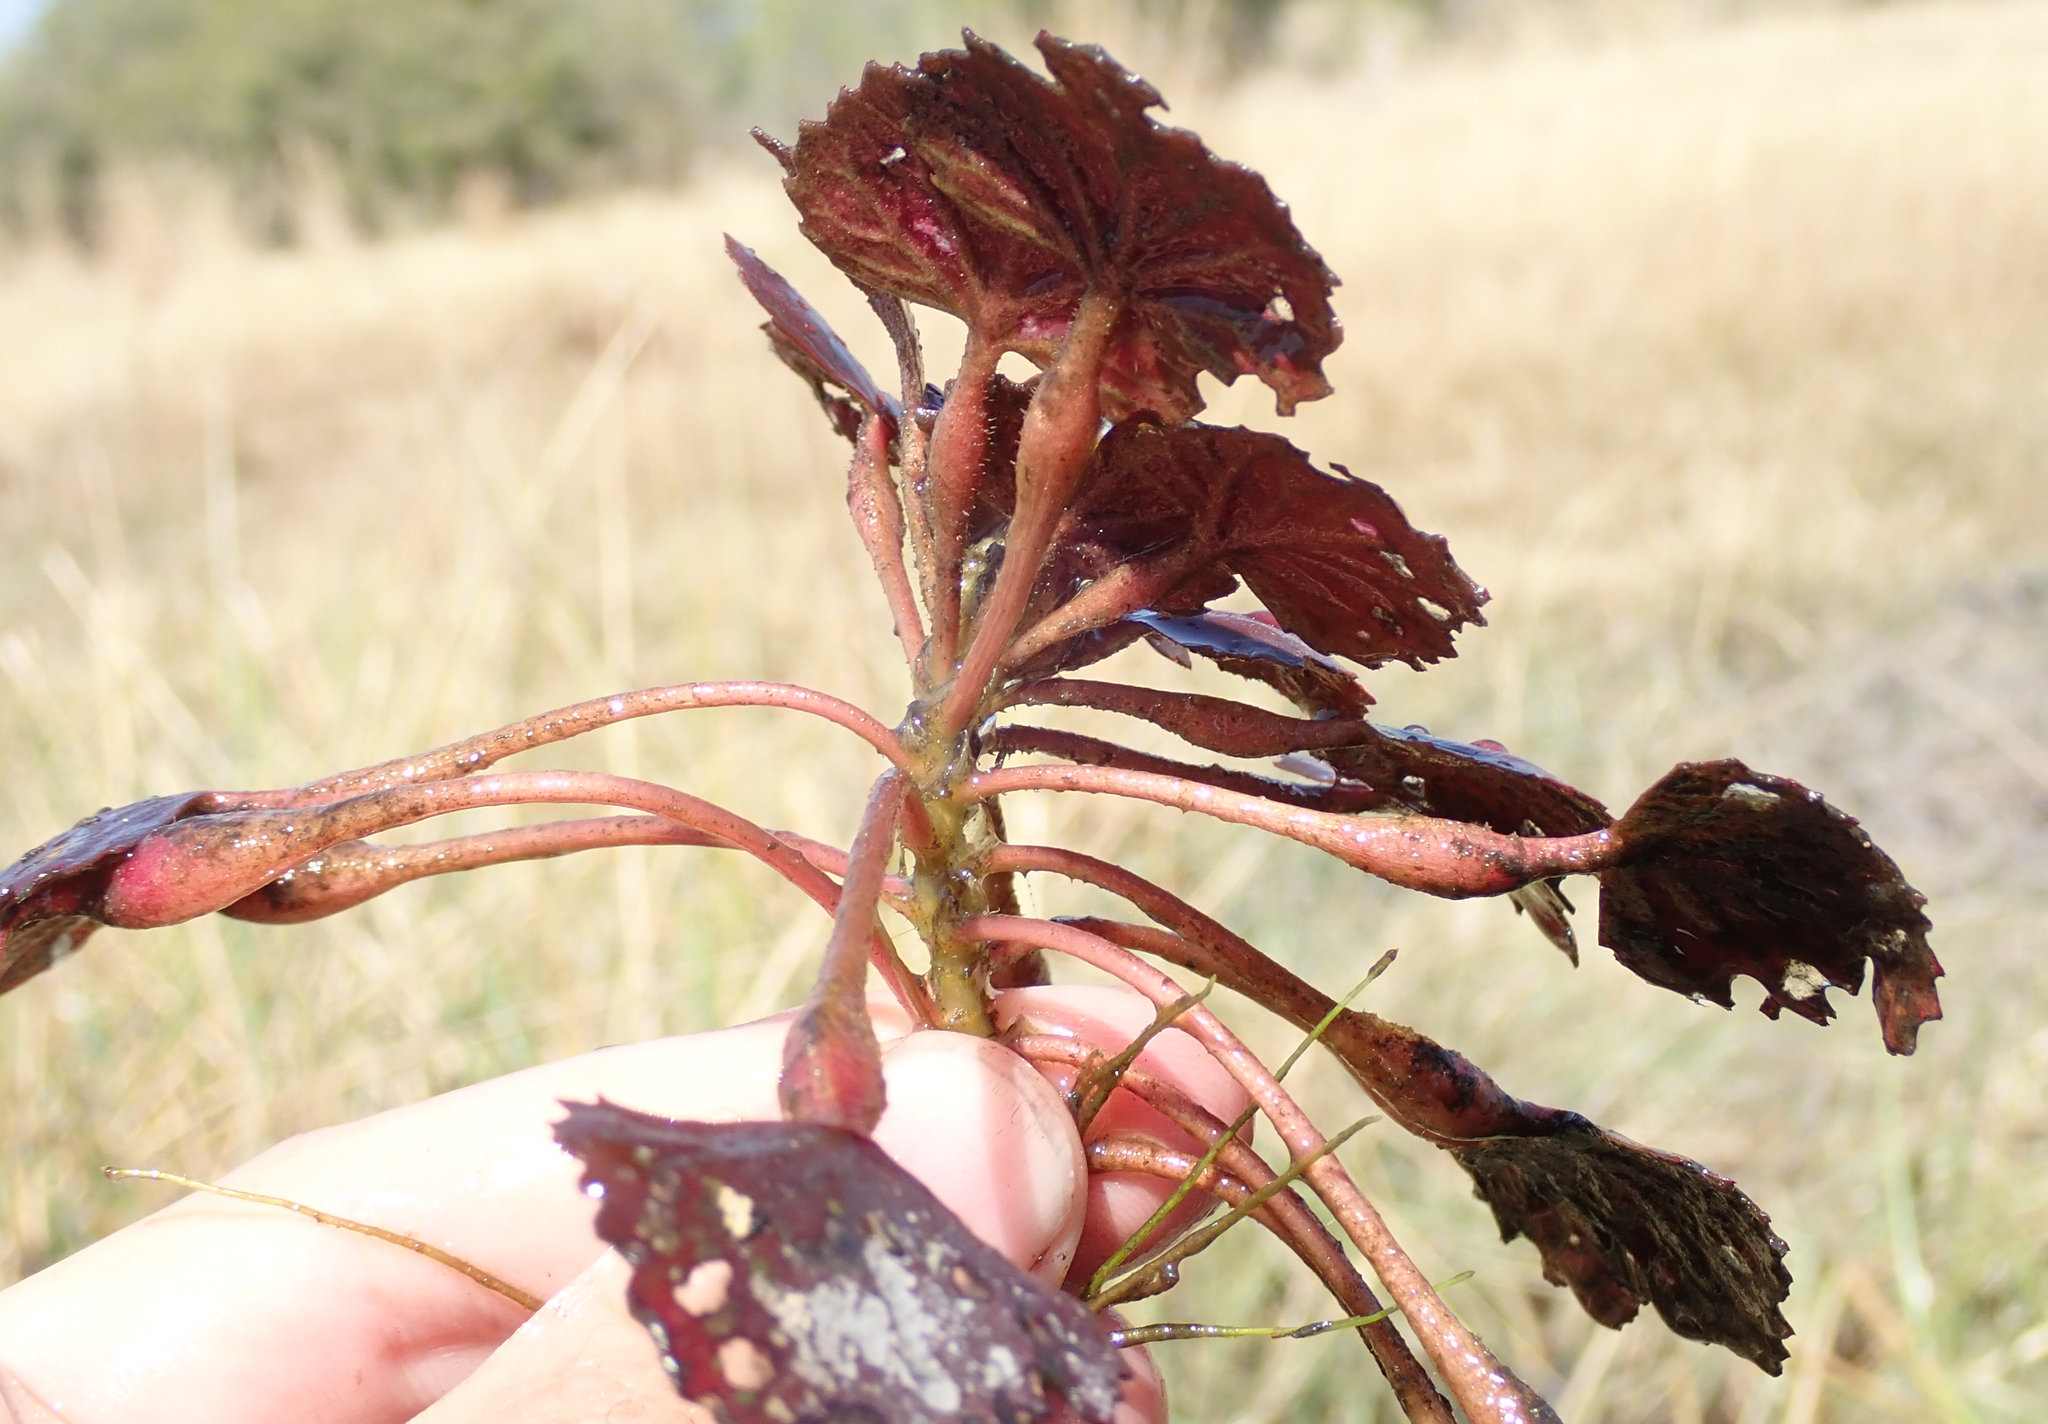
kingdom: Plantae
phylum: Tracheophyta
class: Magnoliopsida
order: Myrtales
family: Lythraceae
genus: Trapa
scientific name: Trapa natans
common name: Water chestnut
